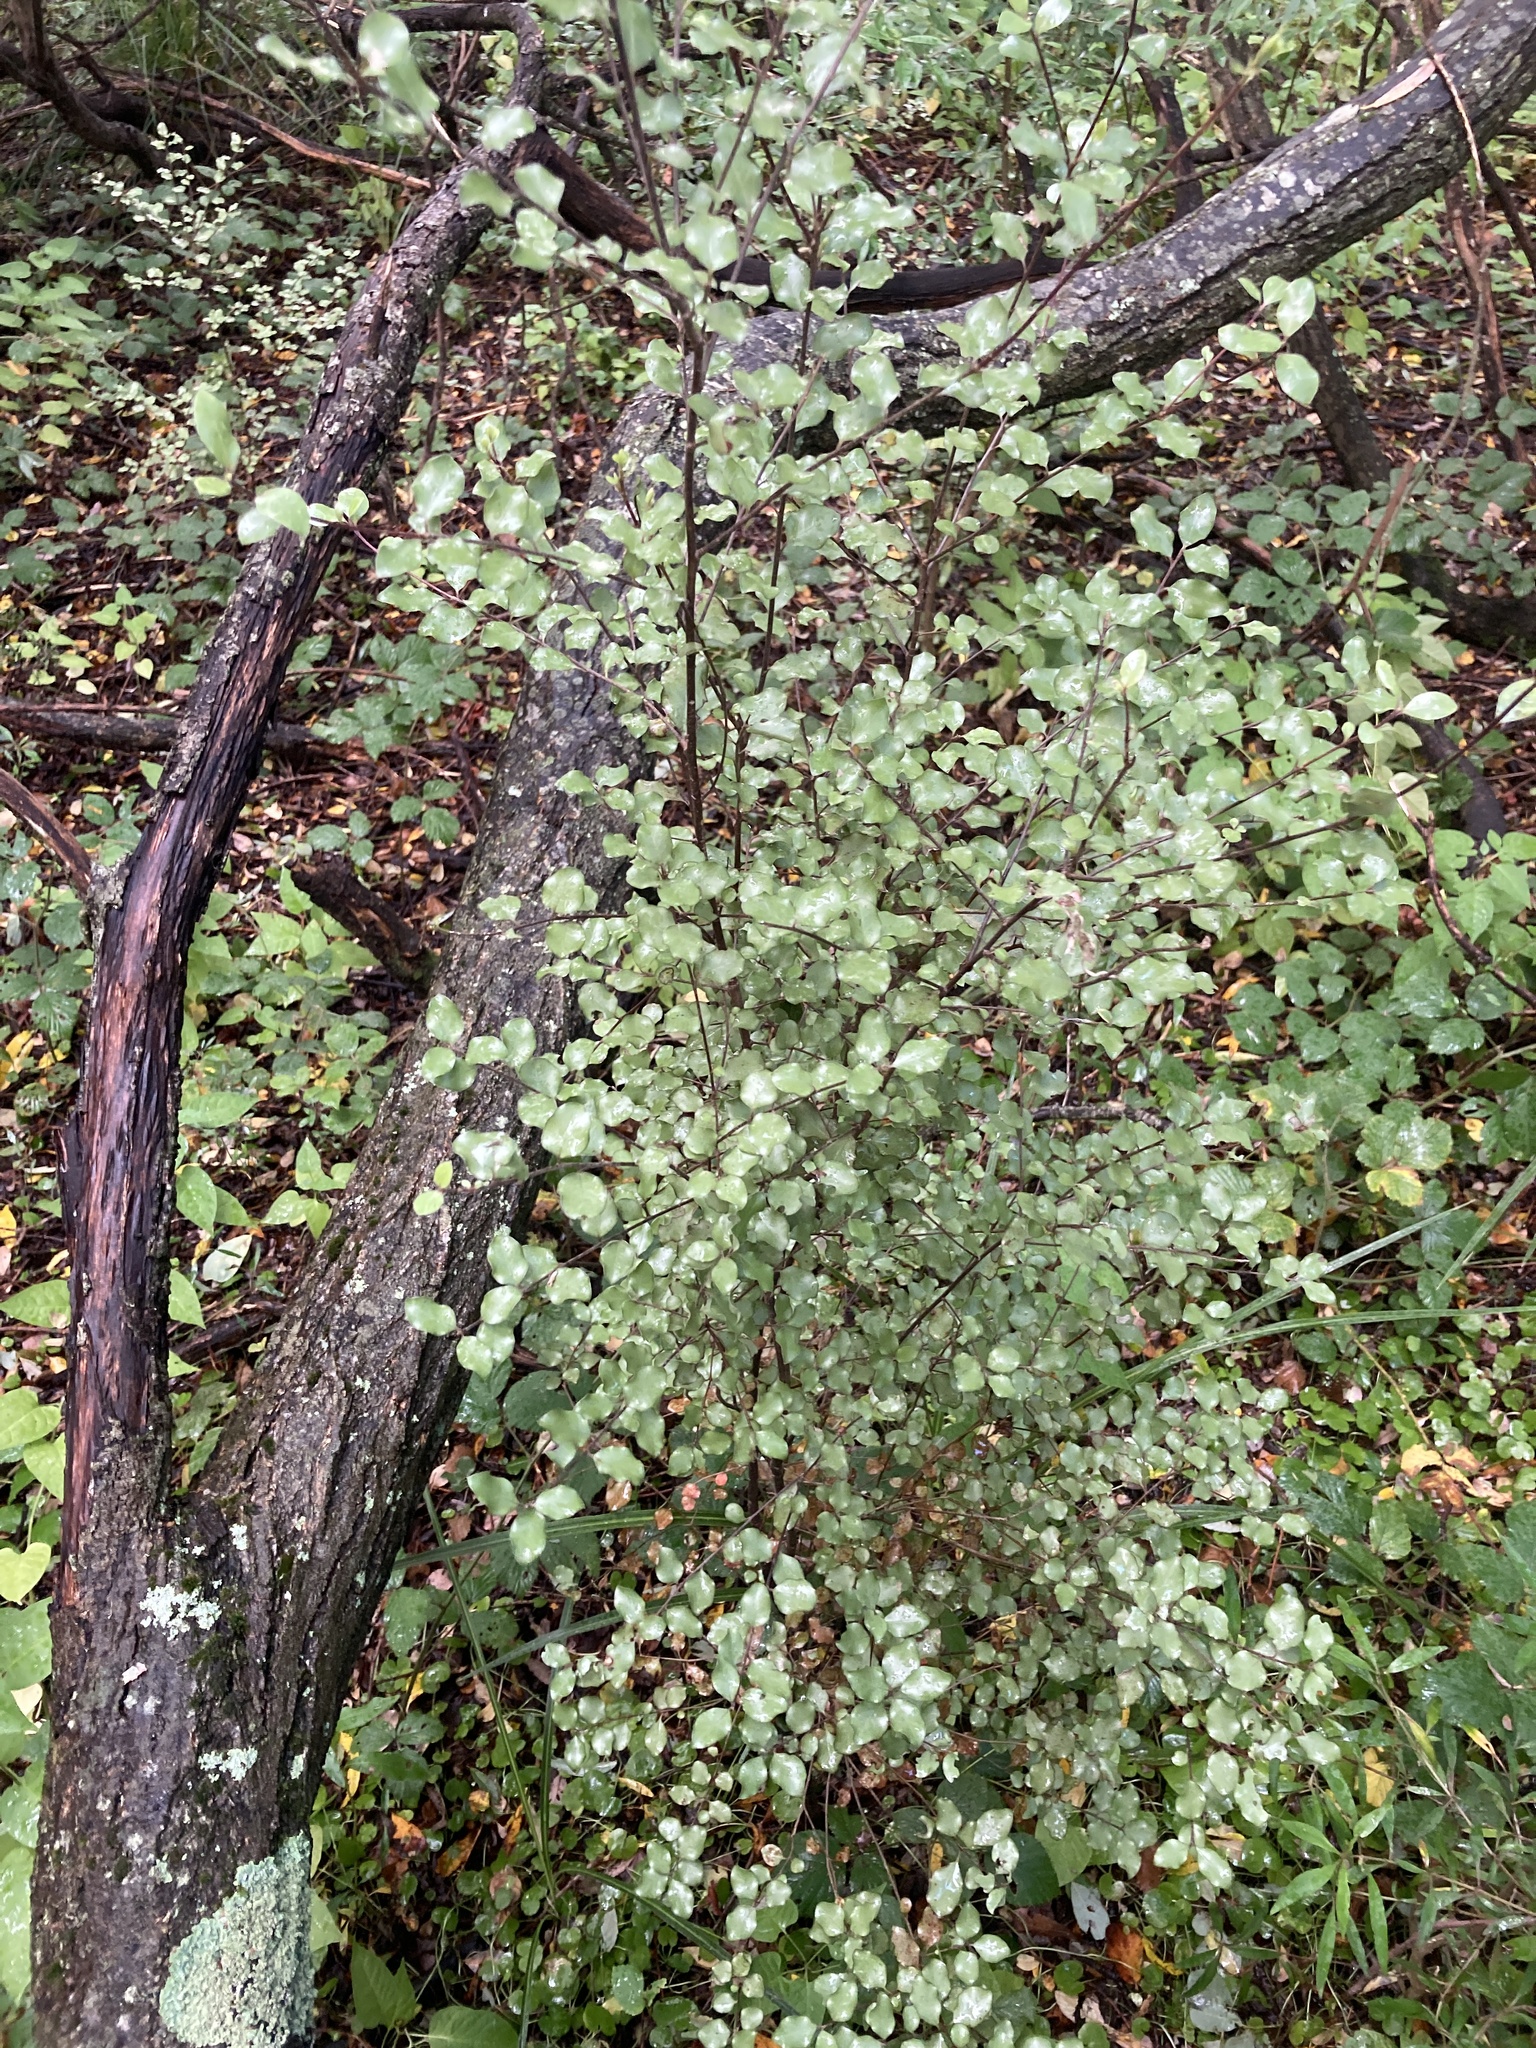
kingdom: Plantae
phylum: Tracheophyta
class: Magnoliopsida
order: Apiales
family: Pittosporaceae
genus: Pittosporum
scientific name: Pittosporum tenuifolium
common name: Kohuhu
